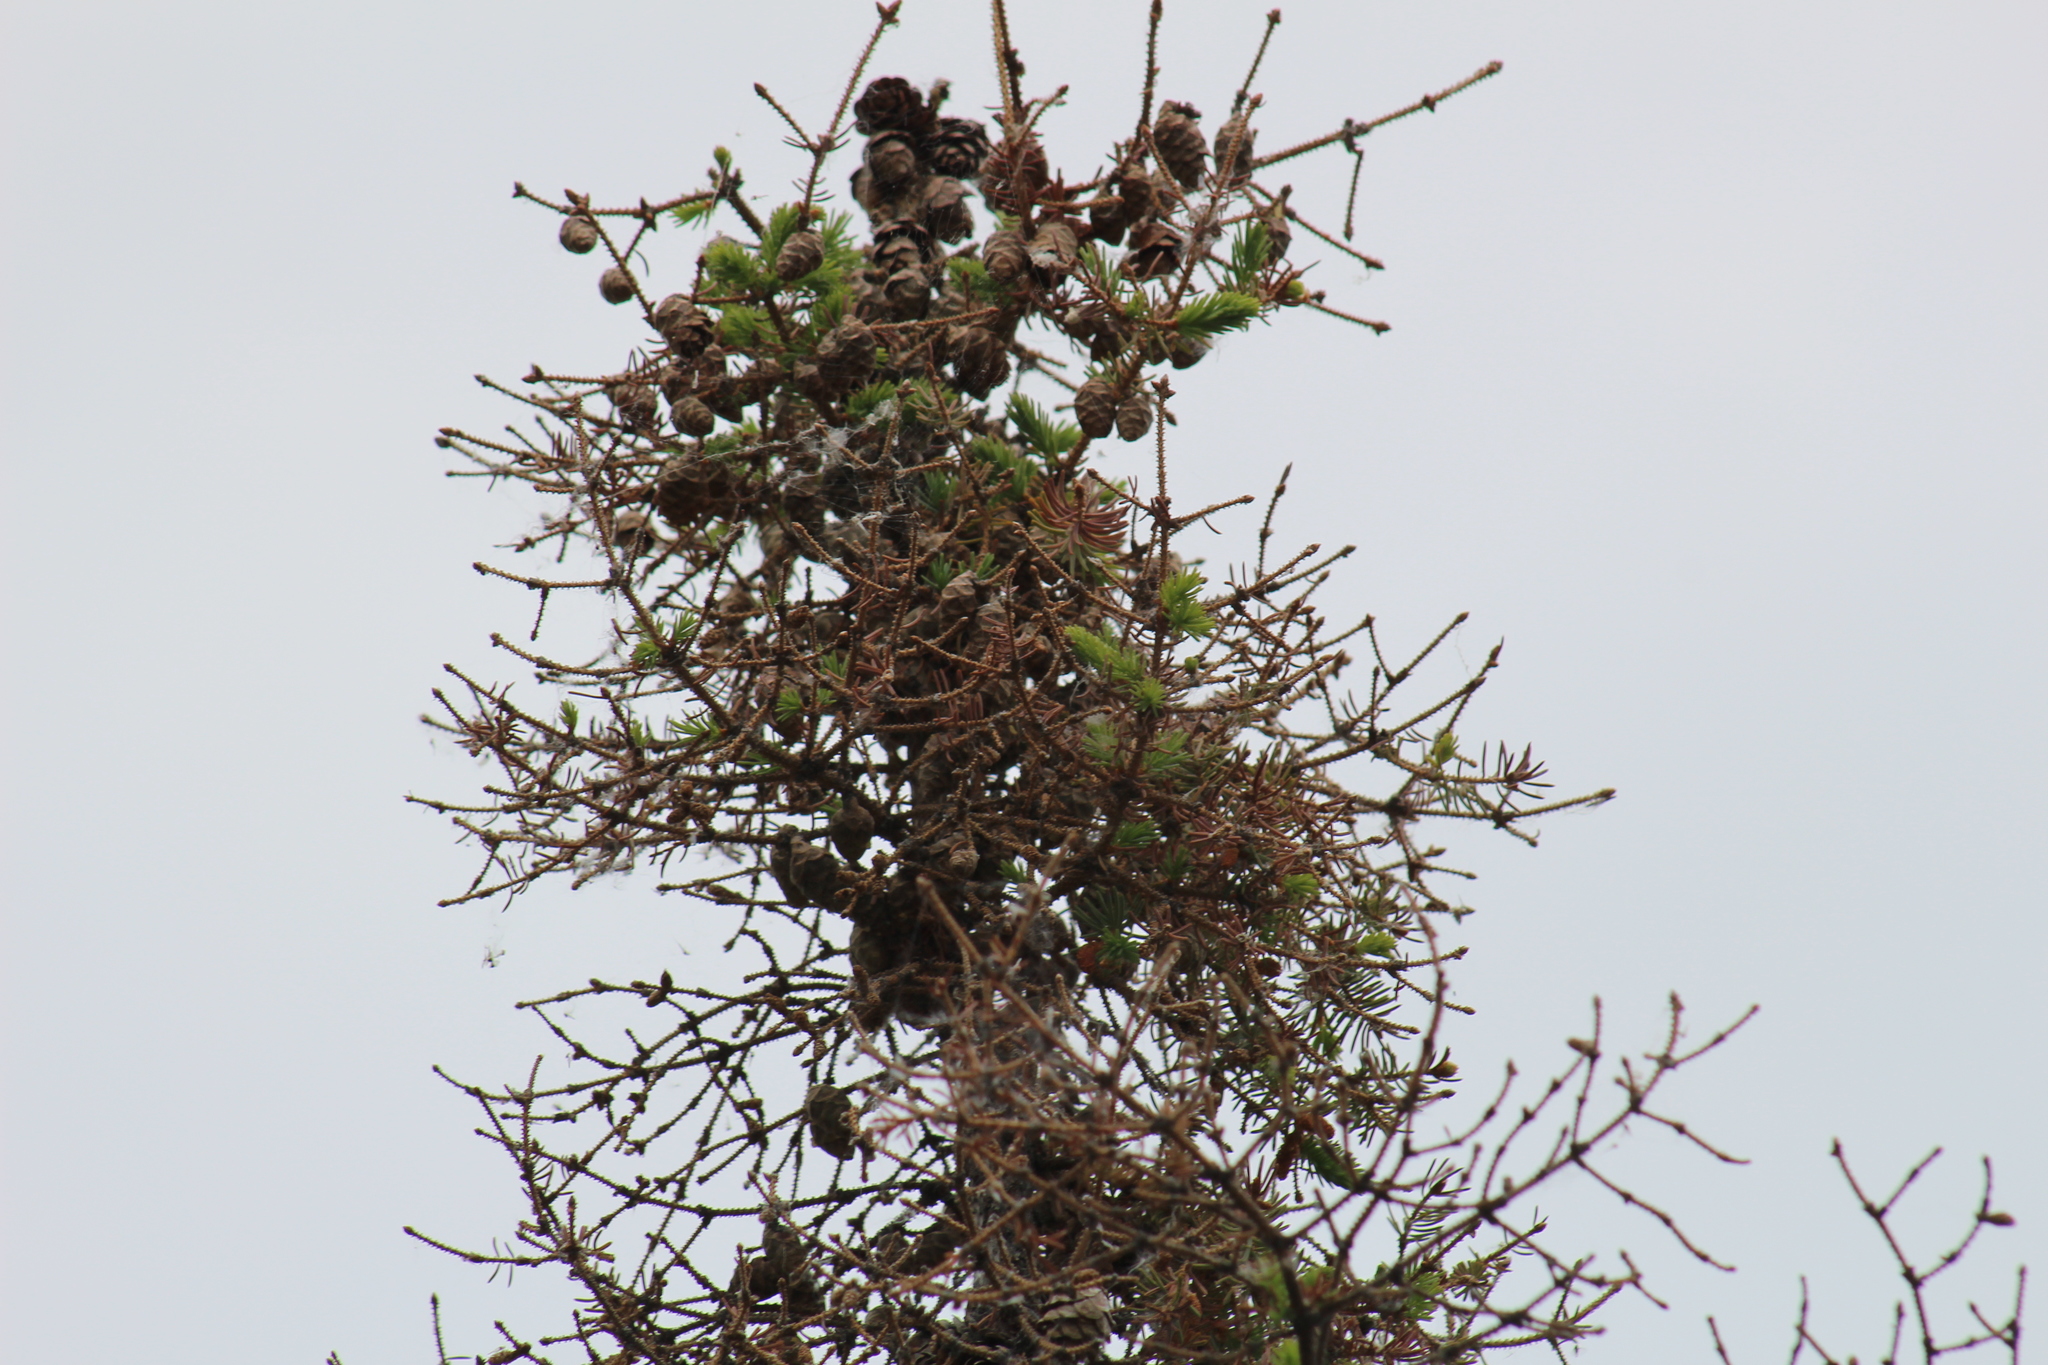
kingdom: Plantae
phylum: Tracheophyta
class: Pinopsida
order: Pinales
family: Pinaceae
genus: Picea
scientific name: Picea mariana
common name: Black spruce
